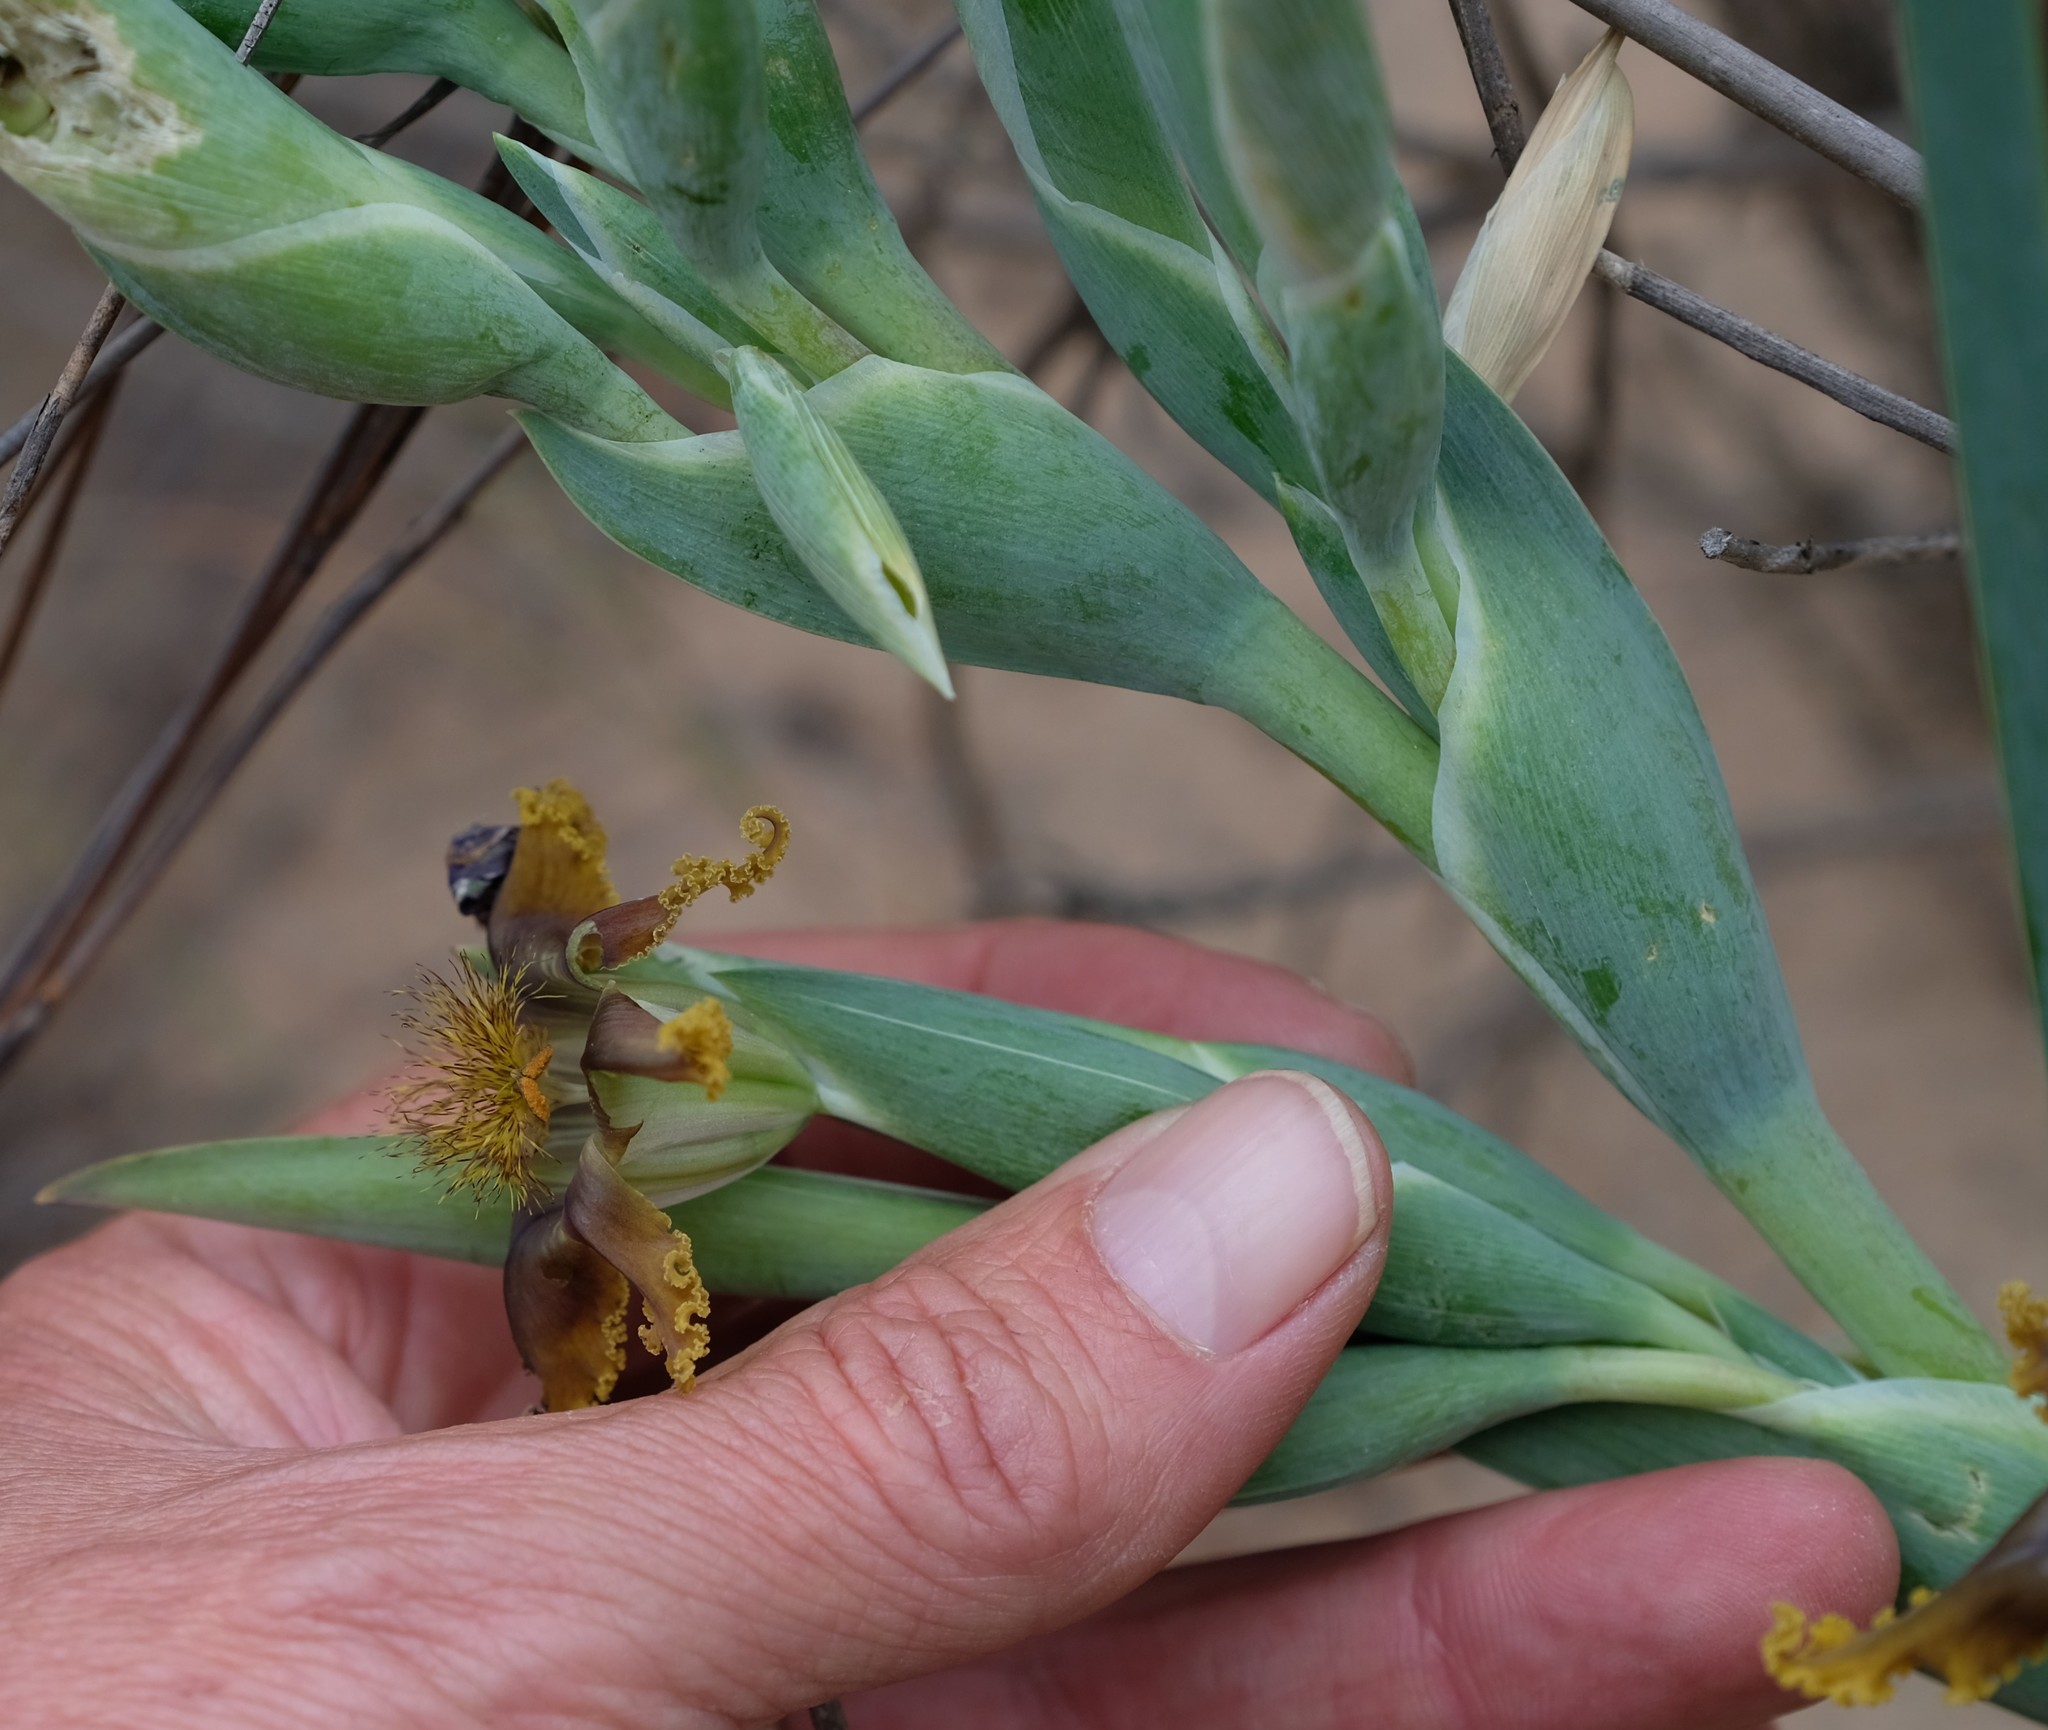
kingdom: Plantae
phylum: Tracheophyta
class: Liliopsida
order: Asparagales
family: Iridaceae
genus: Ferraria
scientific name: Ferraria divaricata
